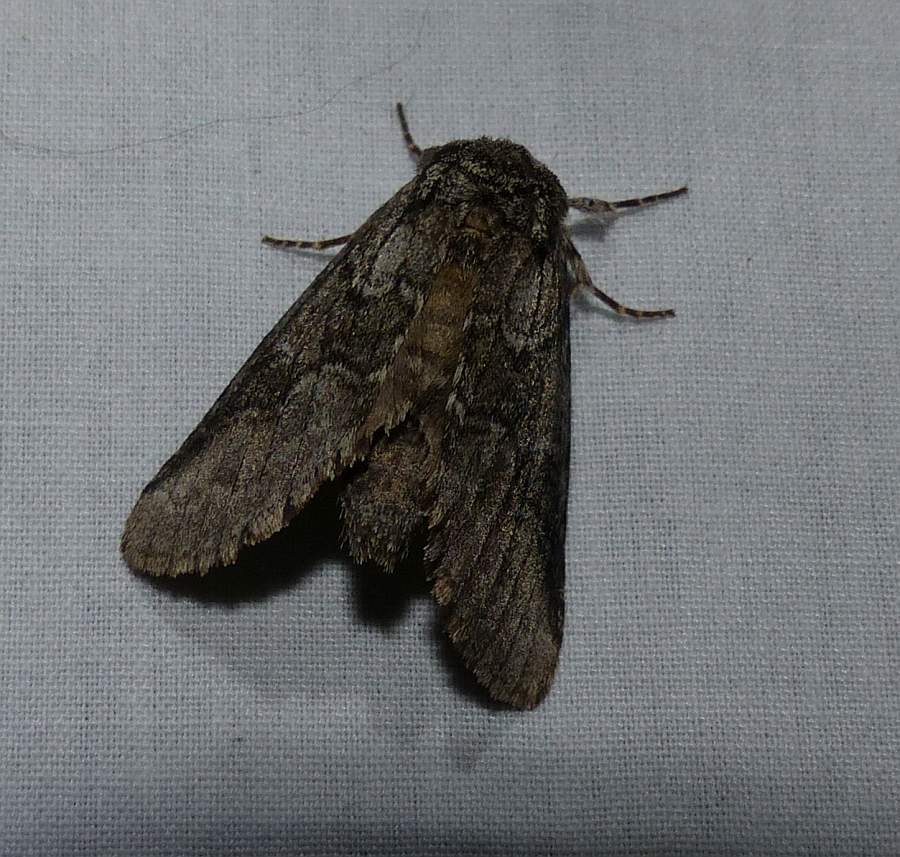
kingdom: Animalia
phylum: Arthropoda
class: Insecta
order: Lepidoptera
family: Notodontidae
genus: Lochmaeus
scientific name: Lochmaeus bilineata
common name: Double-lined prominent
